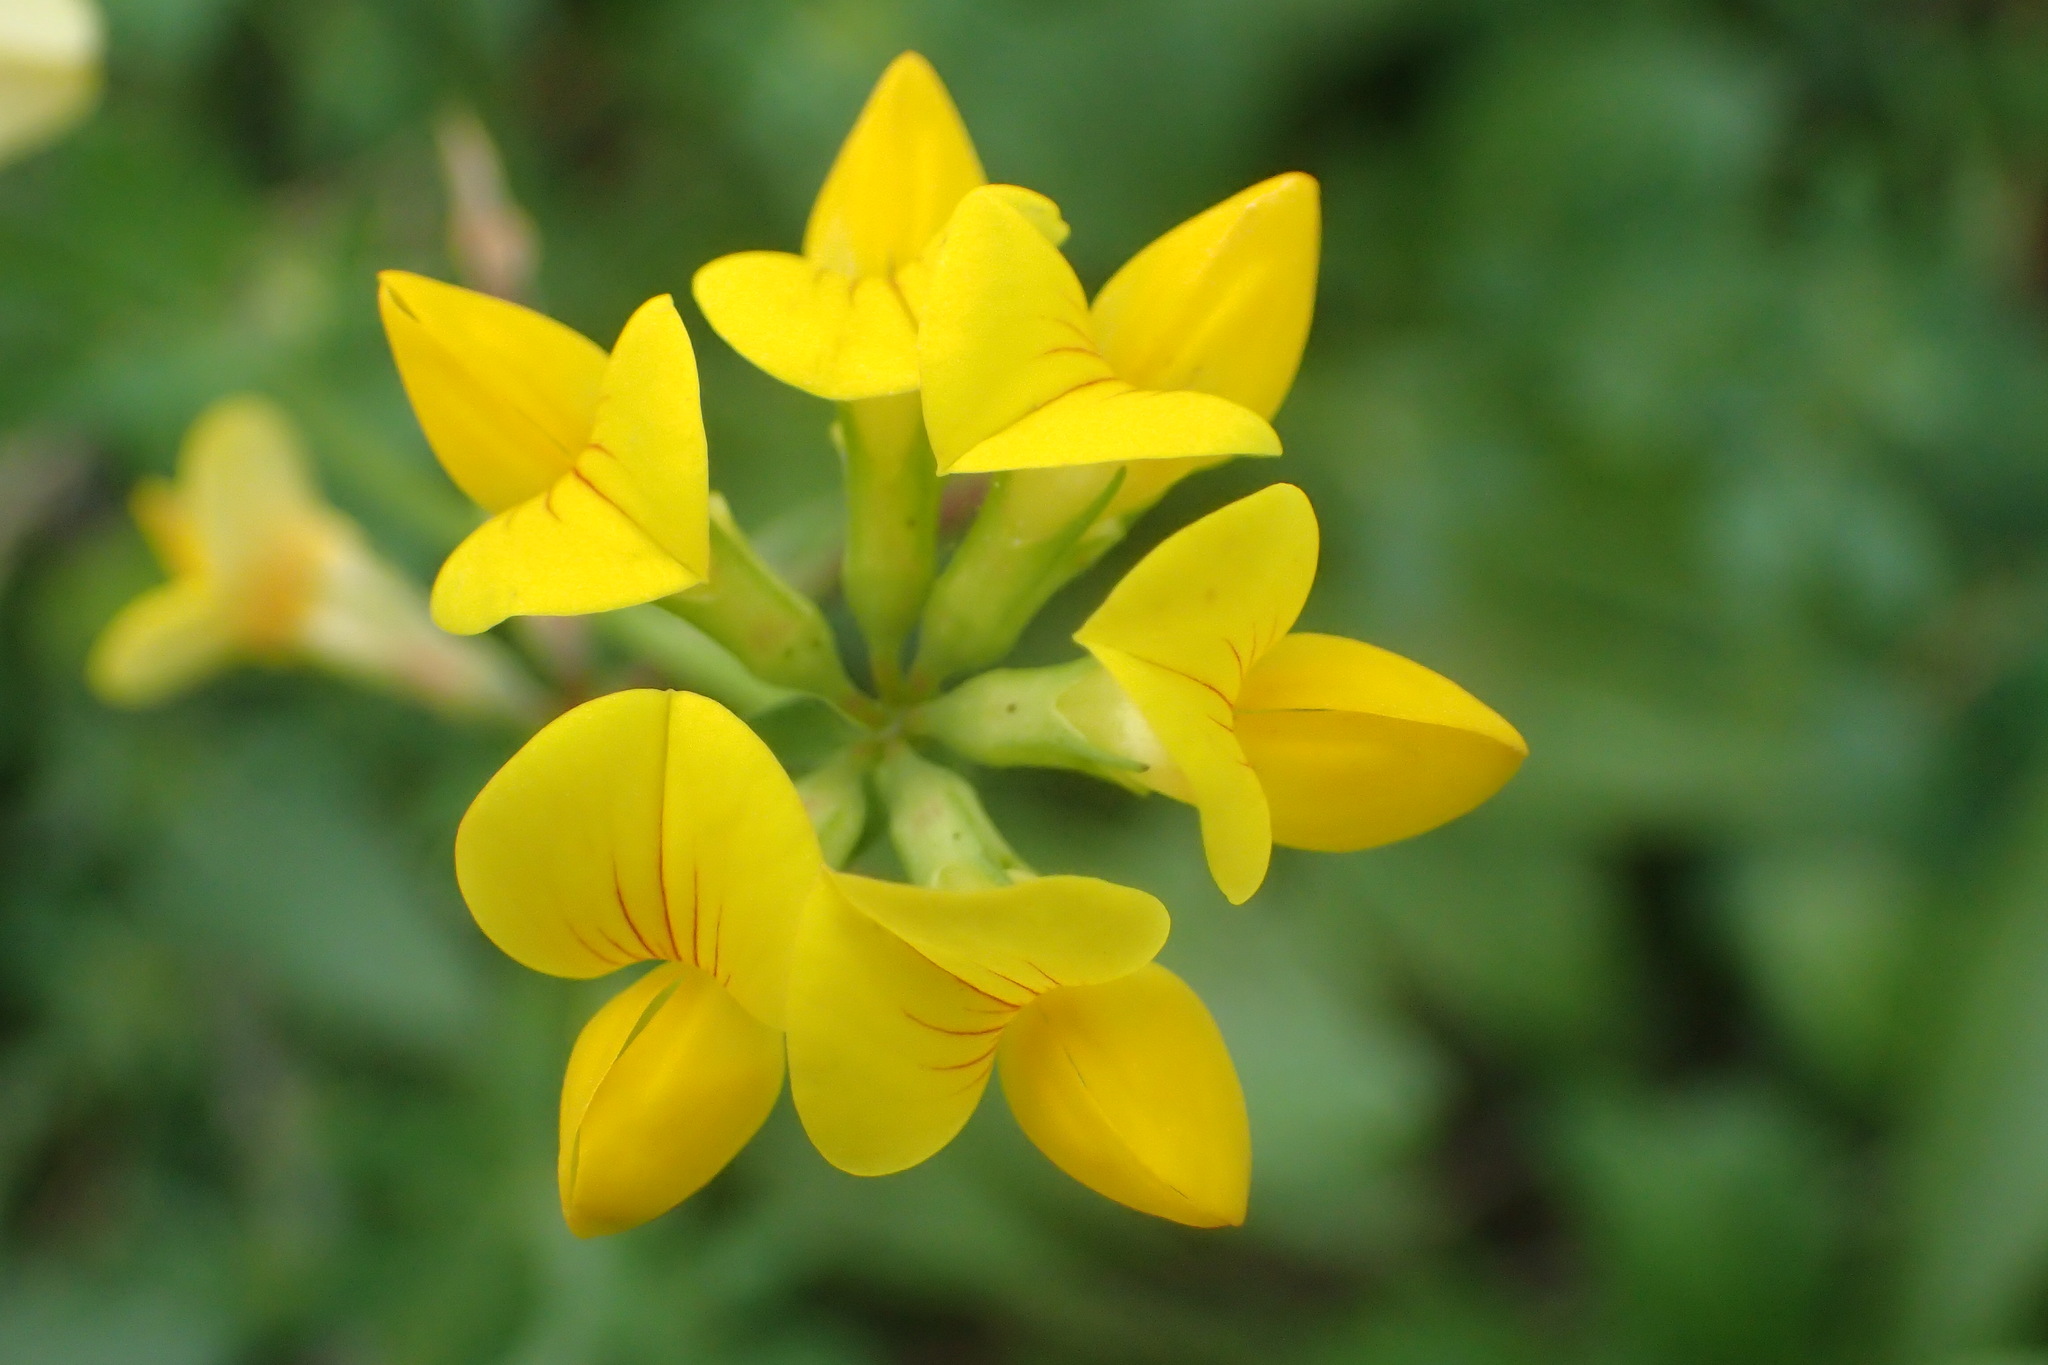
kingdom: Plantae
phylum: Tracheophyta
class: Magnoliopsida
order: Fabales
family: Fabaceae
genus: Lotus
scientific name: Lotus corniculatus
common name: Common bird's-foot-trefoil
